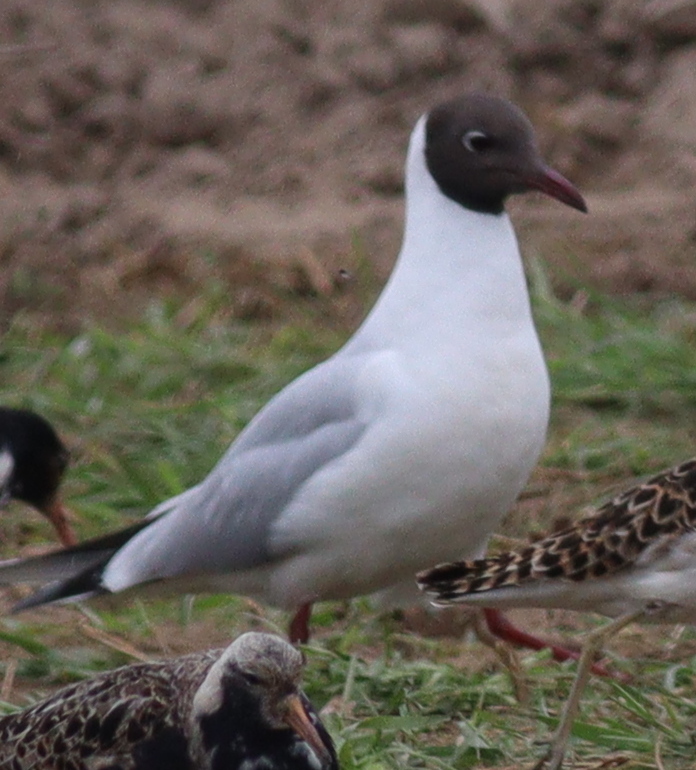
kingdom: Animalia
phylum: Chordata
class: Aves
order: Charadriiformes
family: Laridae
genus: Chroicocephalus
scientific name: Chroicocephalus ridibundus
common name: Black-headed gull
